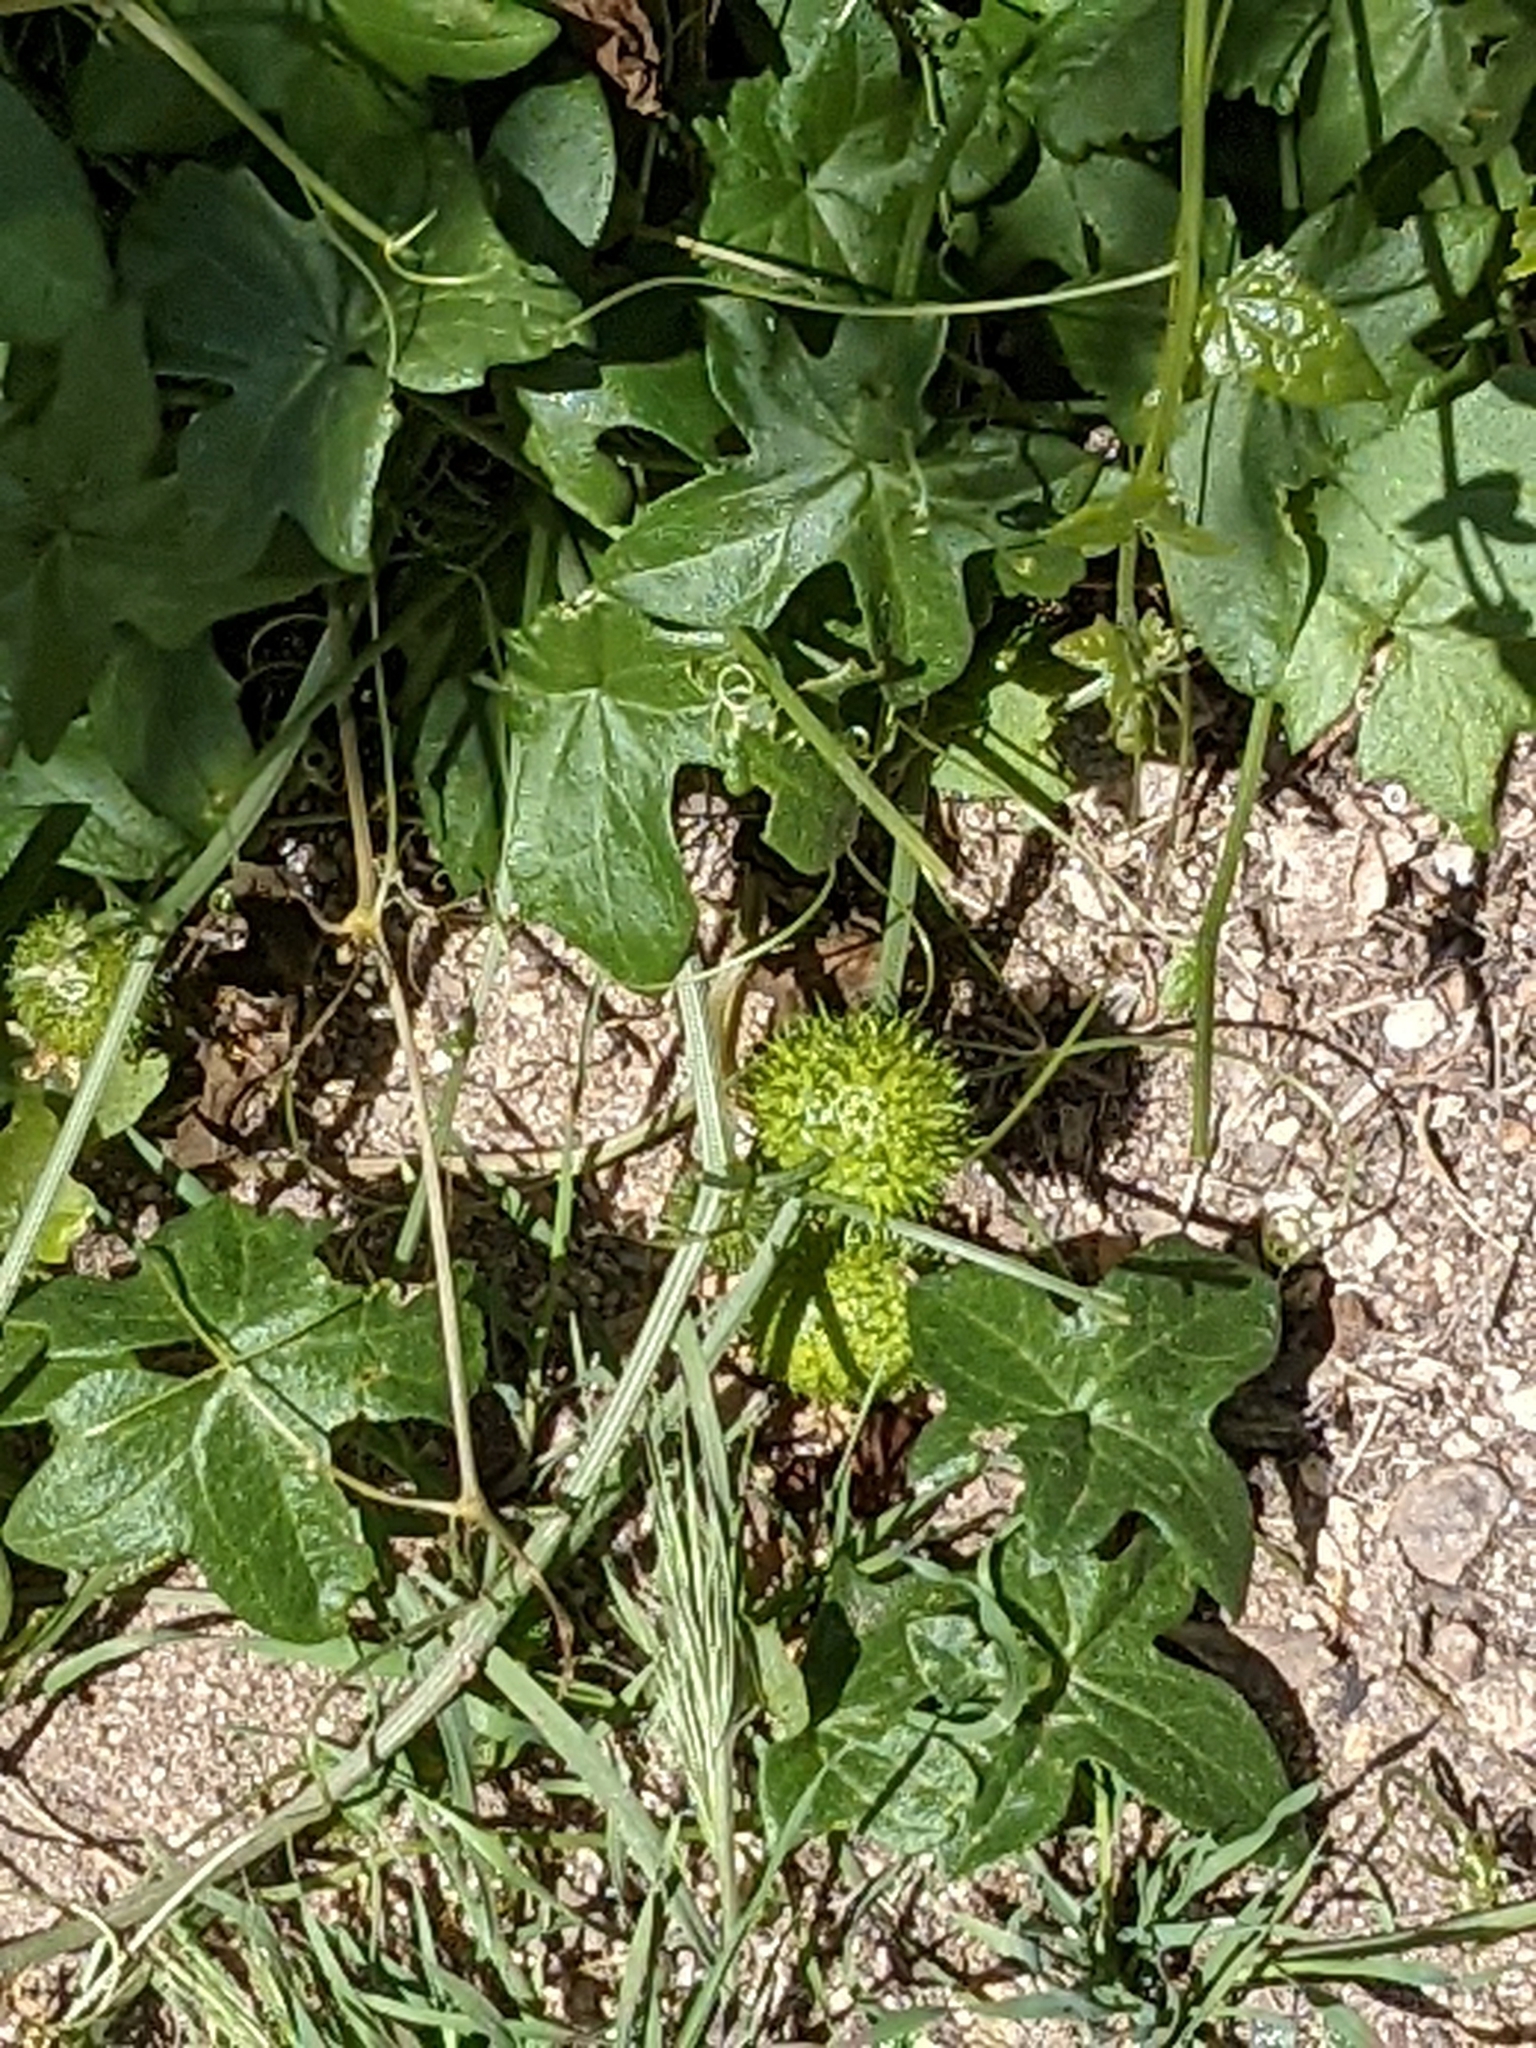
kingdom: Plantae
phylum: Tracheophyta
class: Magnoliopsida
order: Cucurbitales
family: Cucurbitaceae
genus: Marah
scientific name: Marah gilensis
